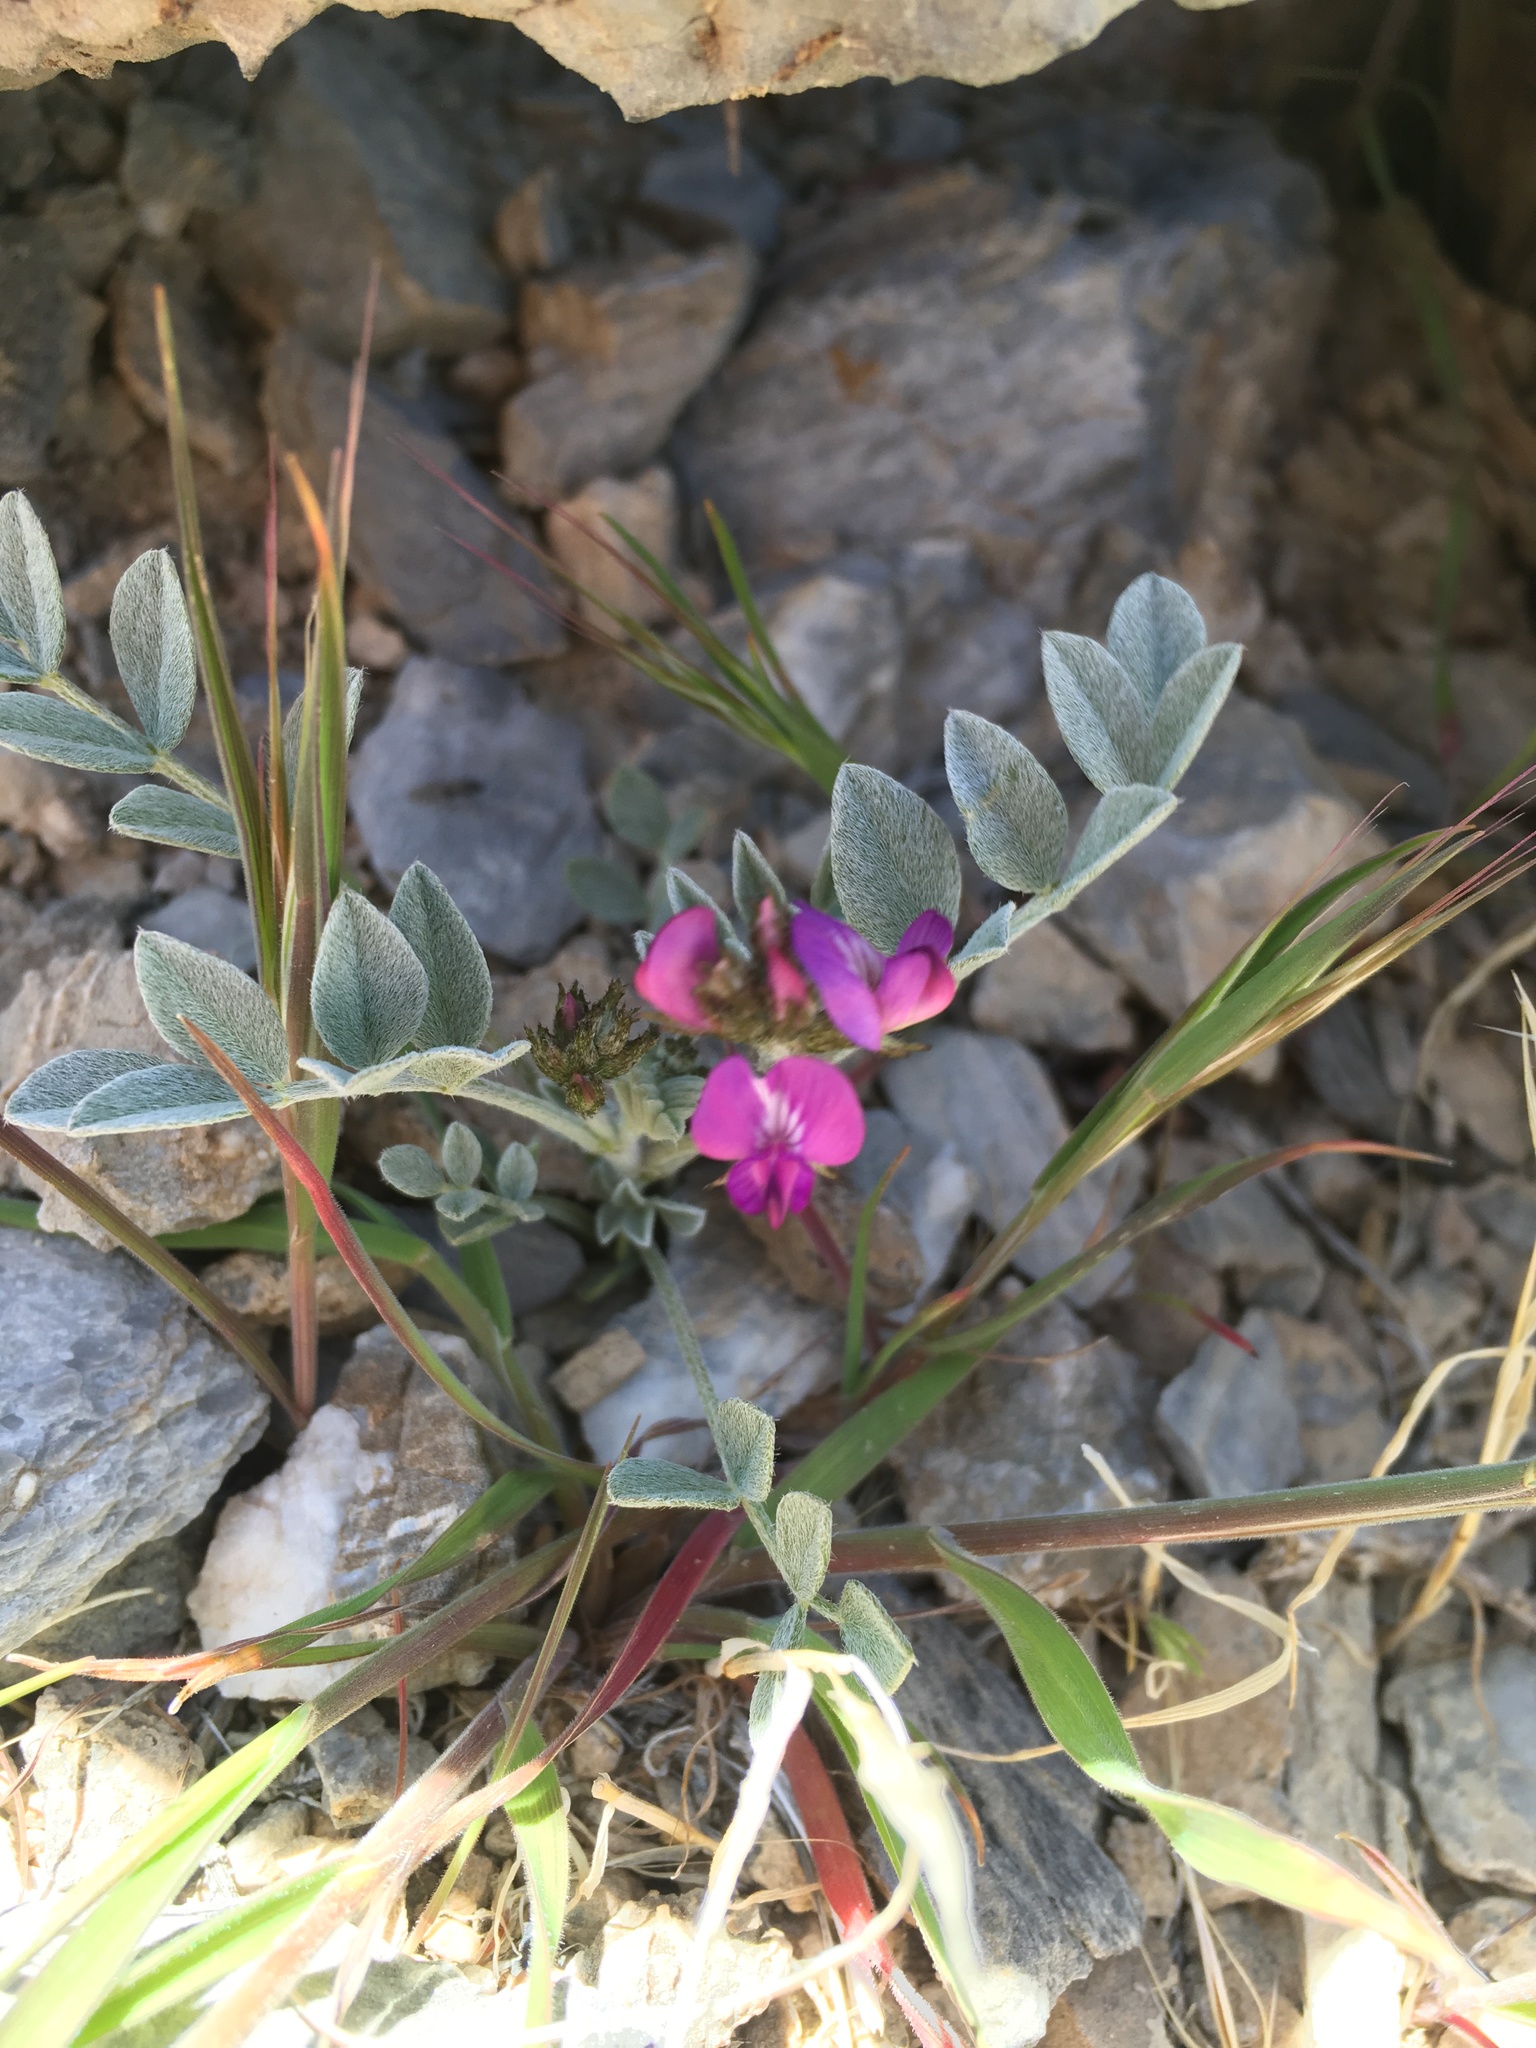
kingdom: Plantae
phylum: Tracheophyta
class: Magnoliopsida
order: Fabales
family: Fabaceae
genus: Astragalus
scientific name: Astragalus mohavensis
